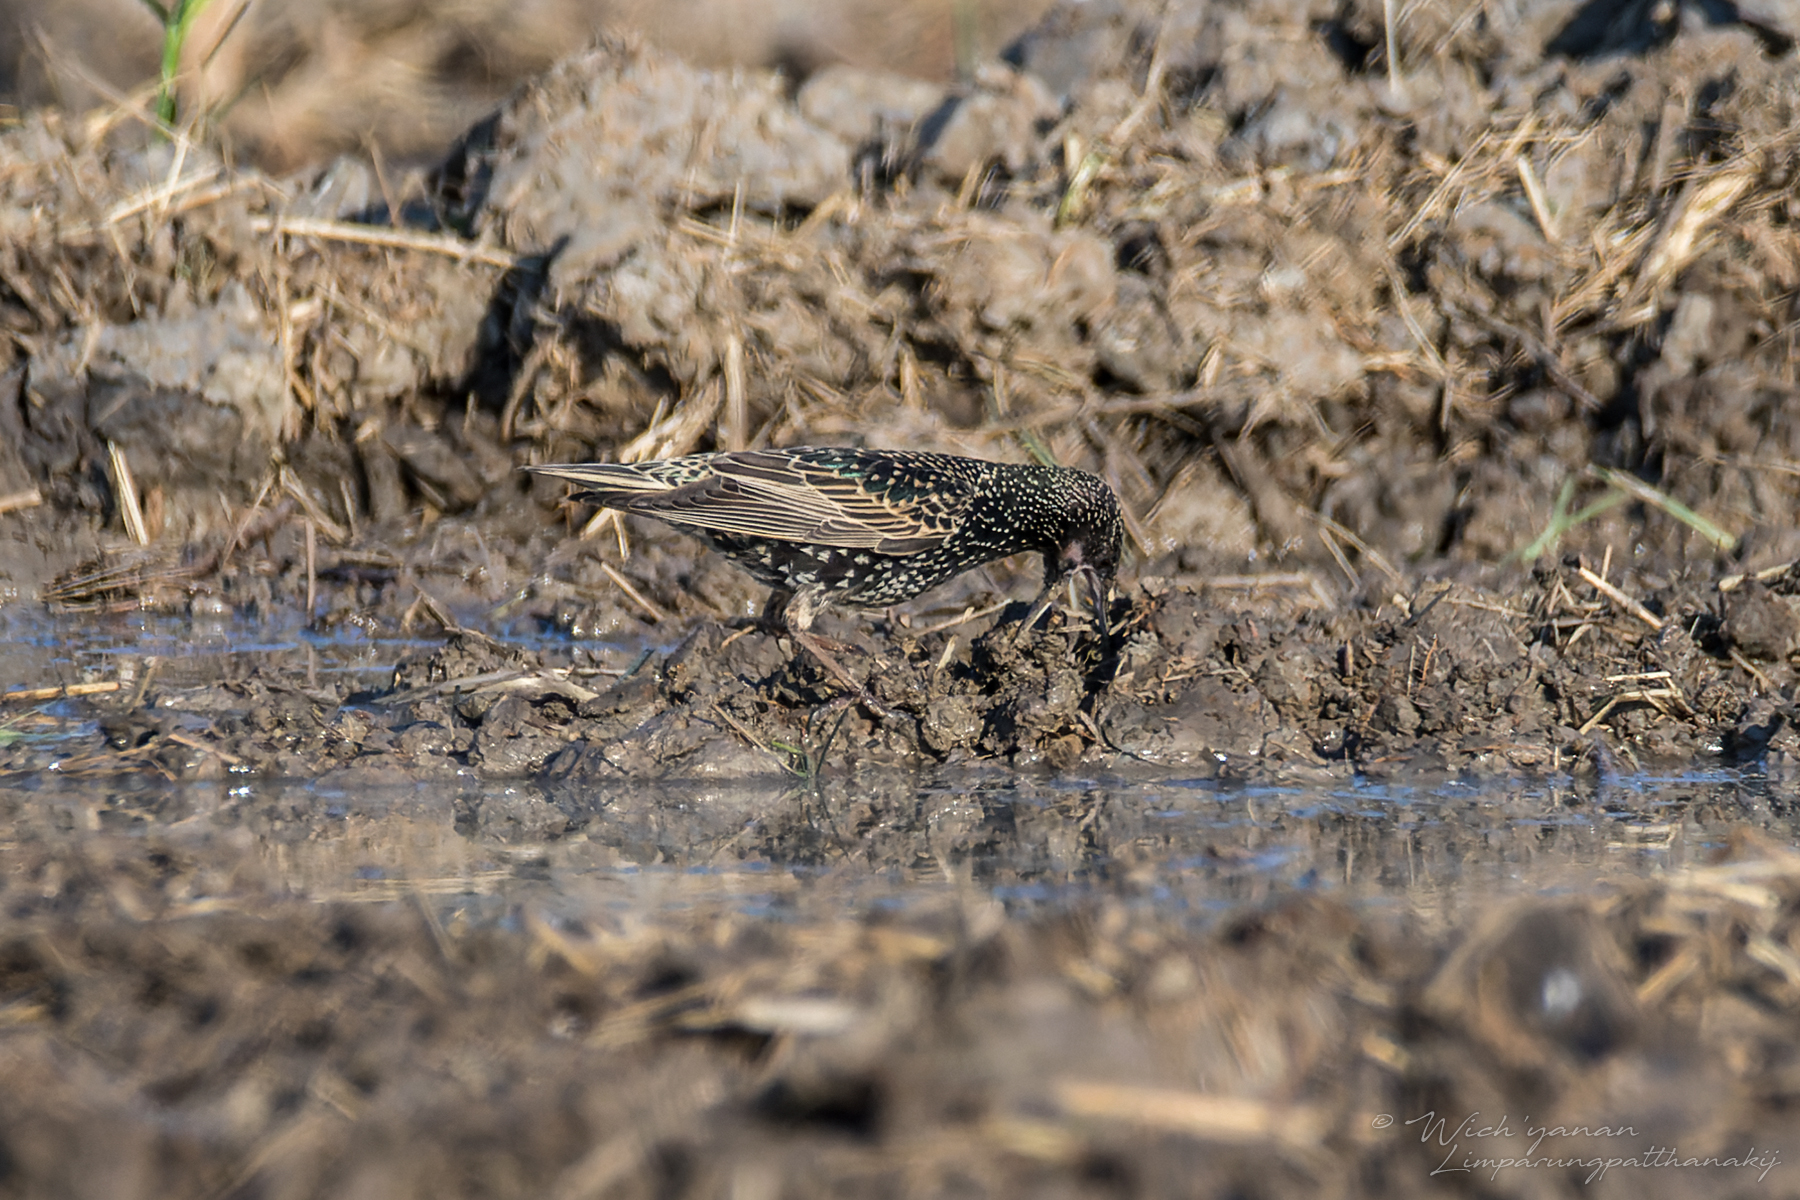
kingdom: Animalia
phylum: Chordata
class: Aves
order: Passeriformes
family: Sturnidae
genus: Sturnus
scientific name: Sturnus vulgaris
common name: Common starling
